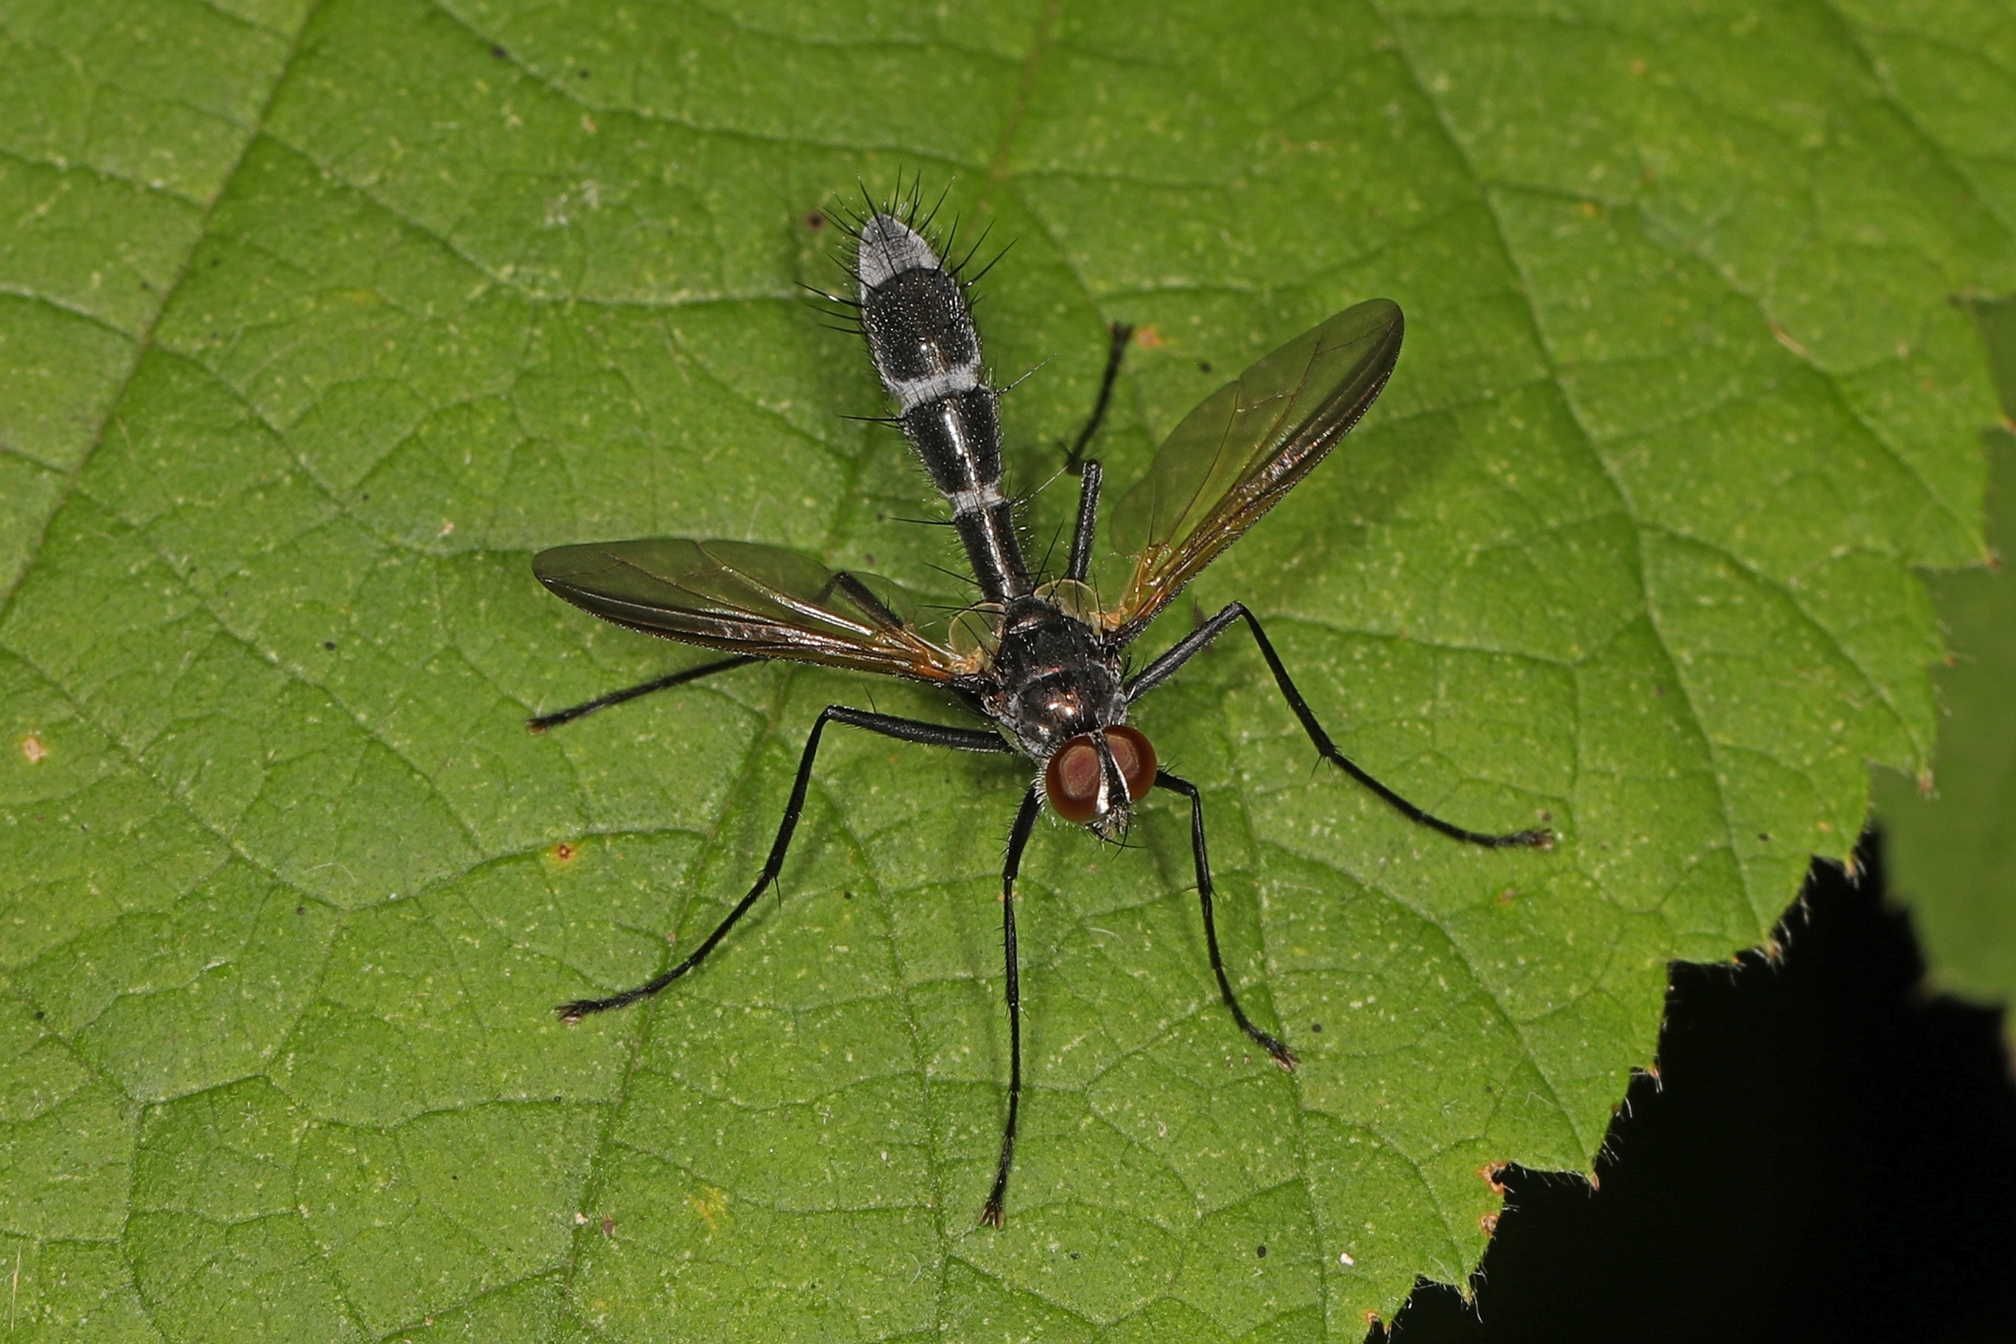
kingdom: Animalia
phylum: Arthropoda
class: Insecta
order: Diptera
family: Tachinidae
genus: Cordyligaster
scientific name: Cordyligaster septentrionalis
